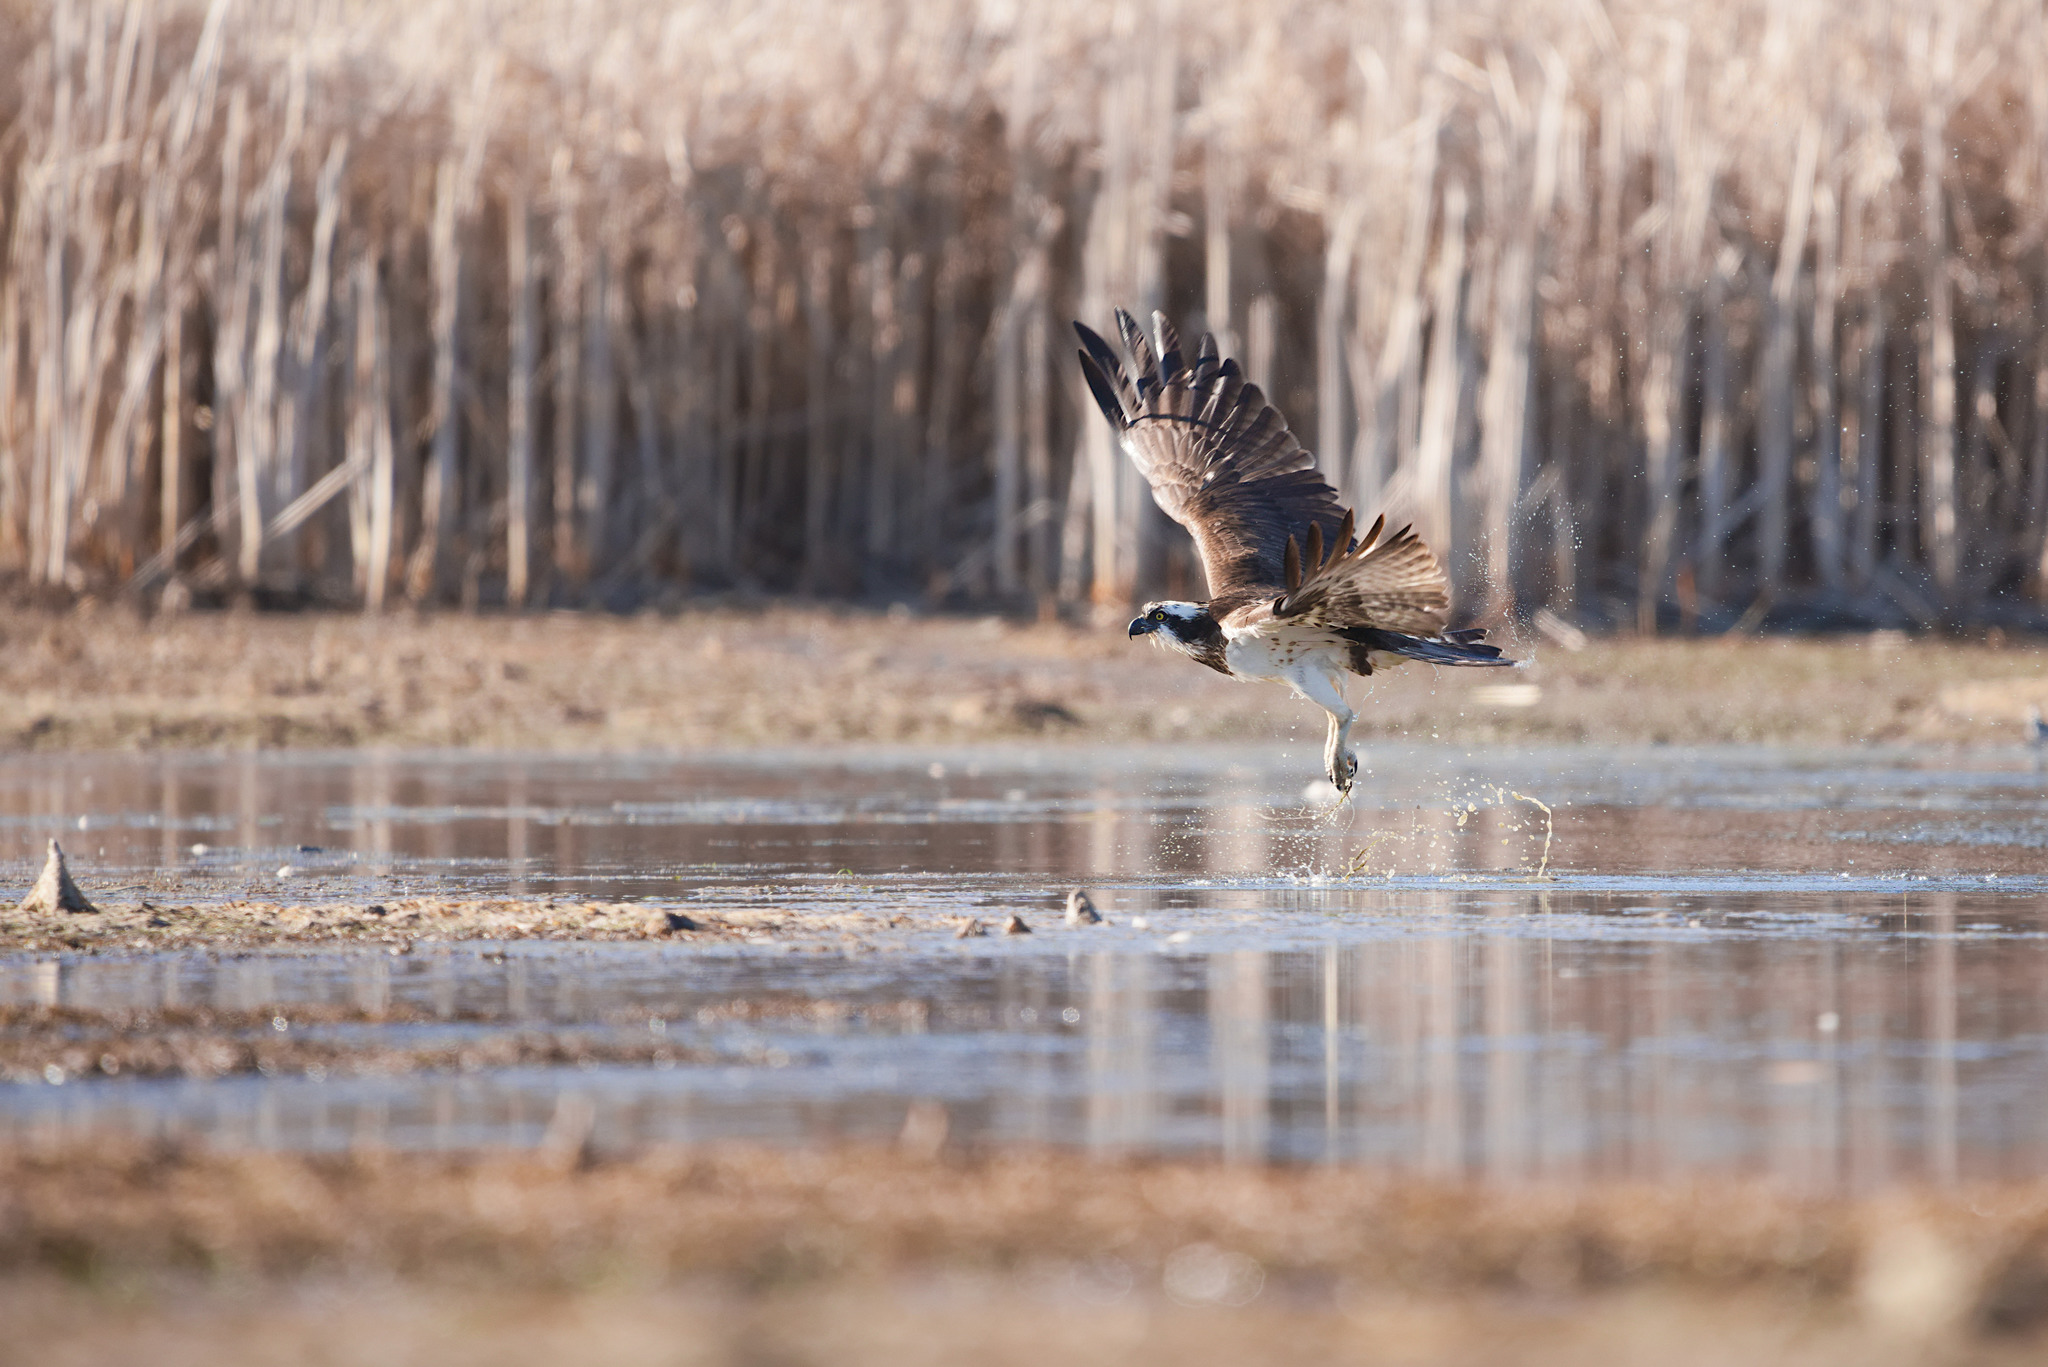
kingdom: Animalia
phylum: Chordata
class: Aves
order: Accipitriformes
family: Pandionidae
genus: Pandion
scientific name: Pandion haliaetus
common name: Osprey
